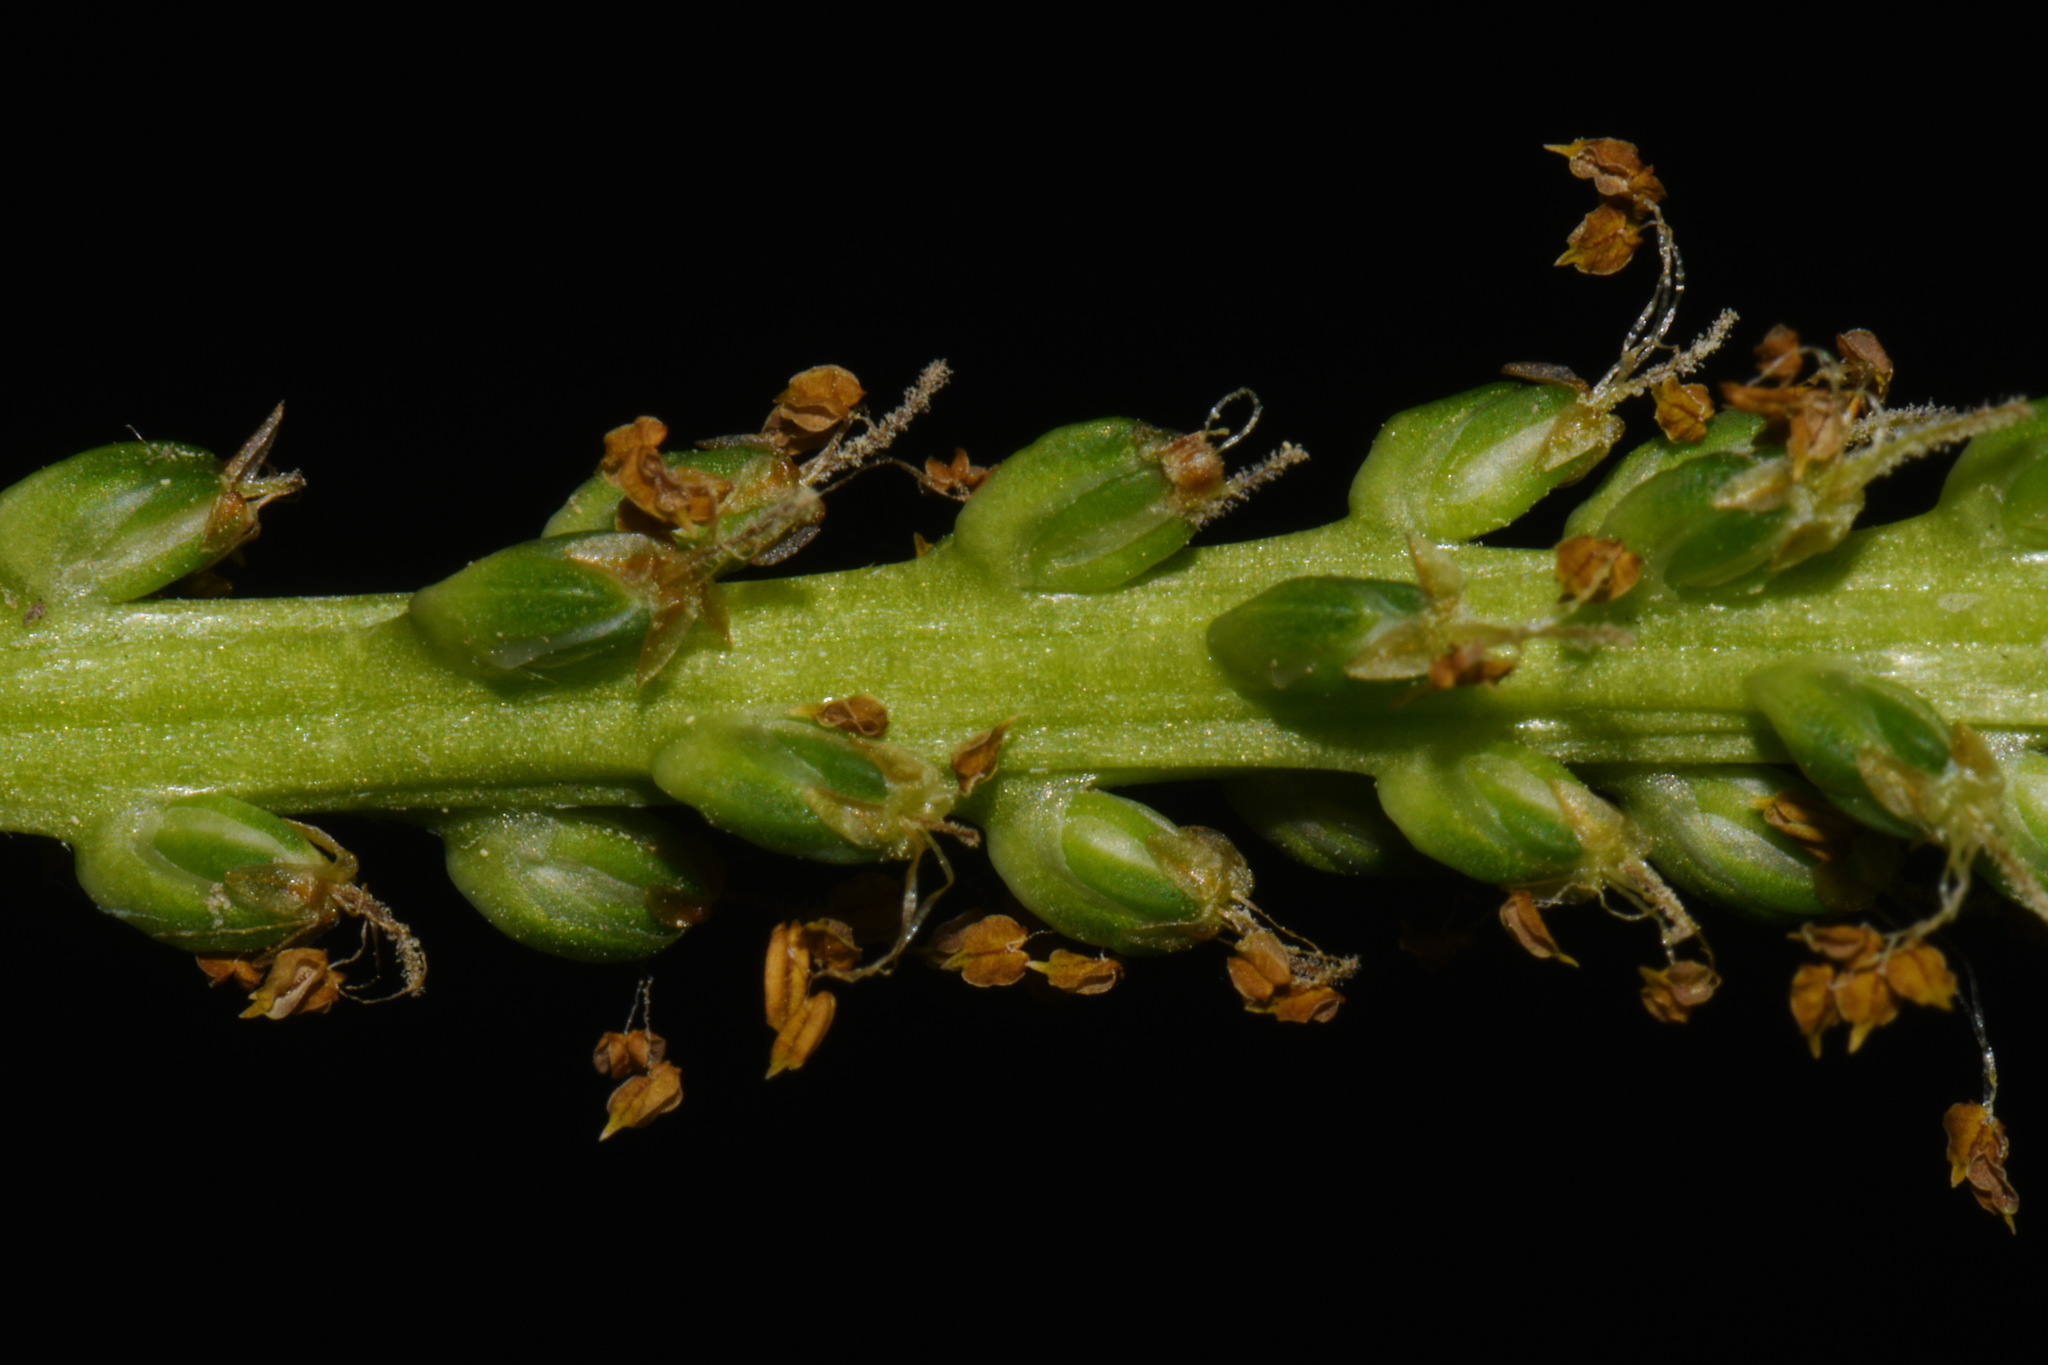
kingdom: Plantae
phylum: Tracheophyta
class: Magnoliopsida
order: Lamiales
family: Plantaginaceae
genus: Plantago
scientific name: Plantago rugelii
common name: American plantain
